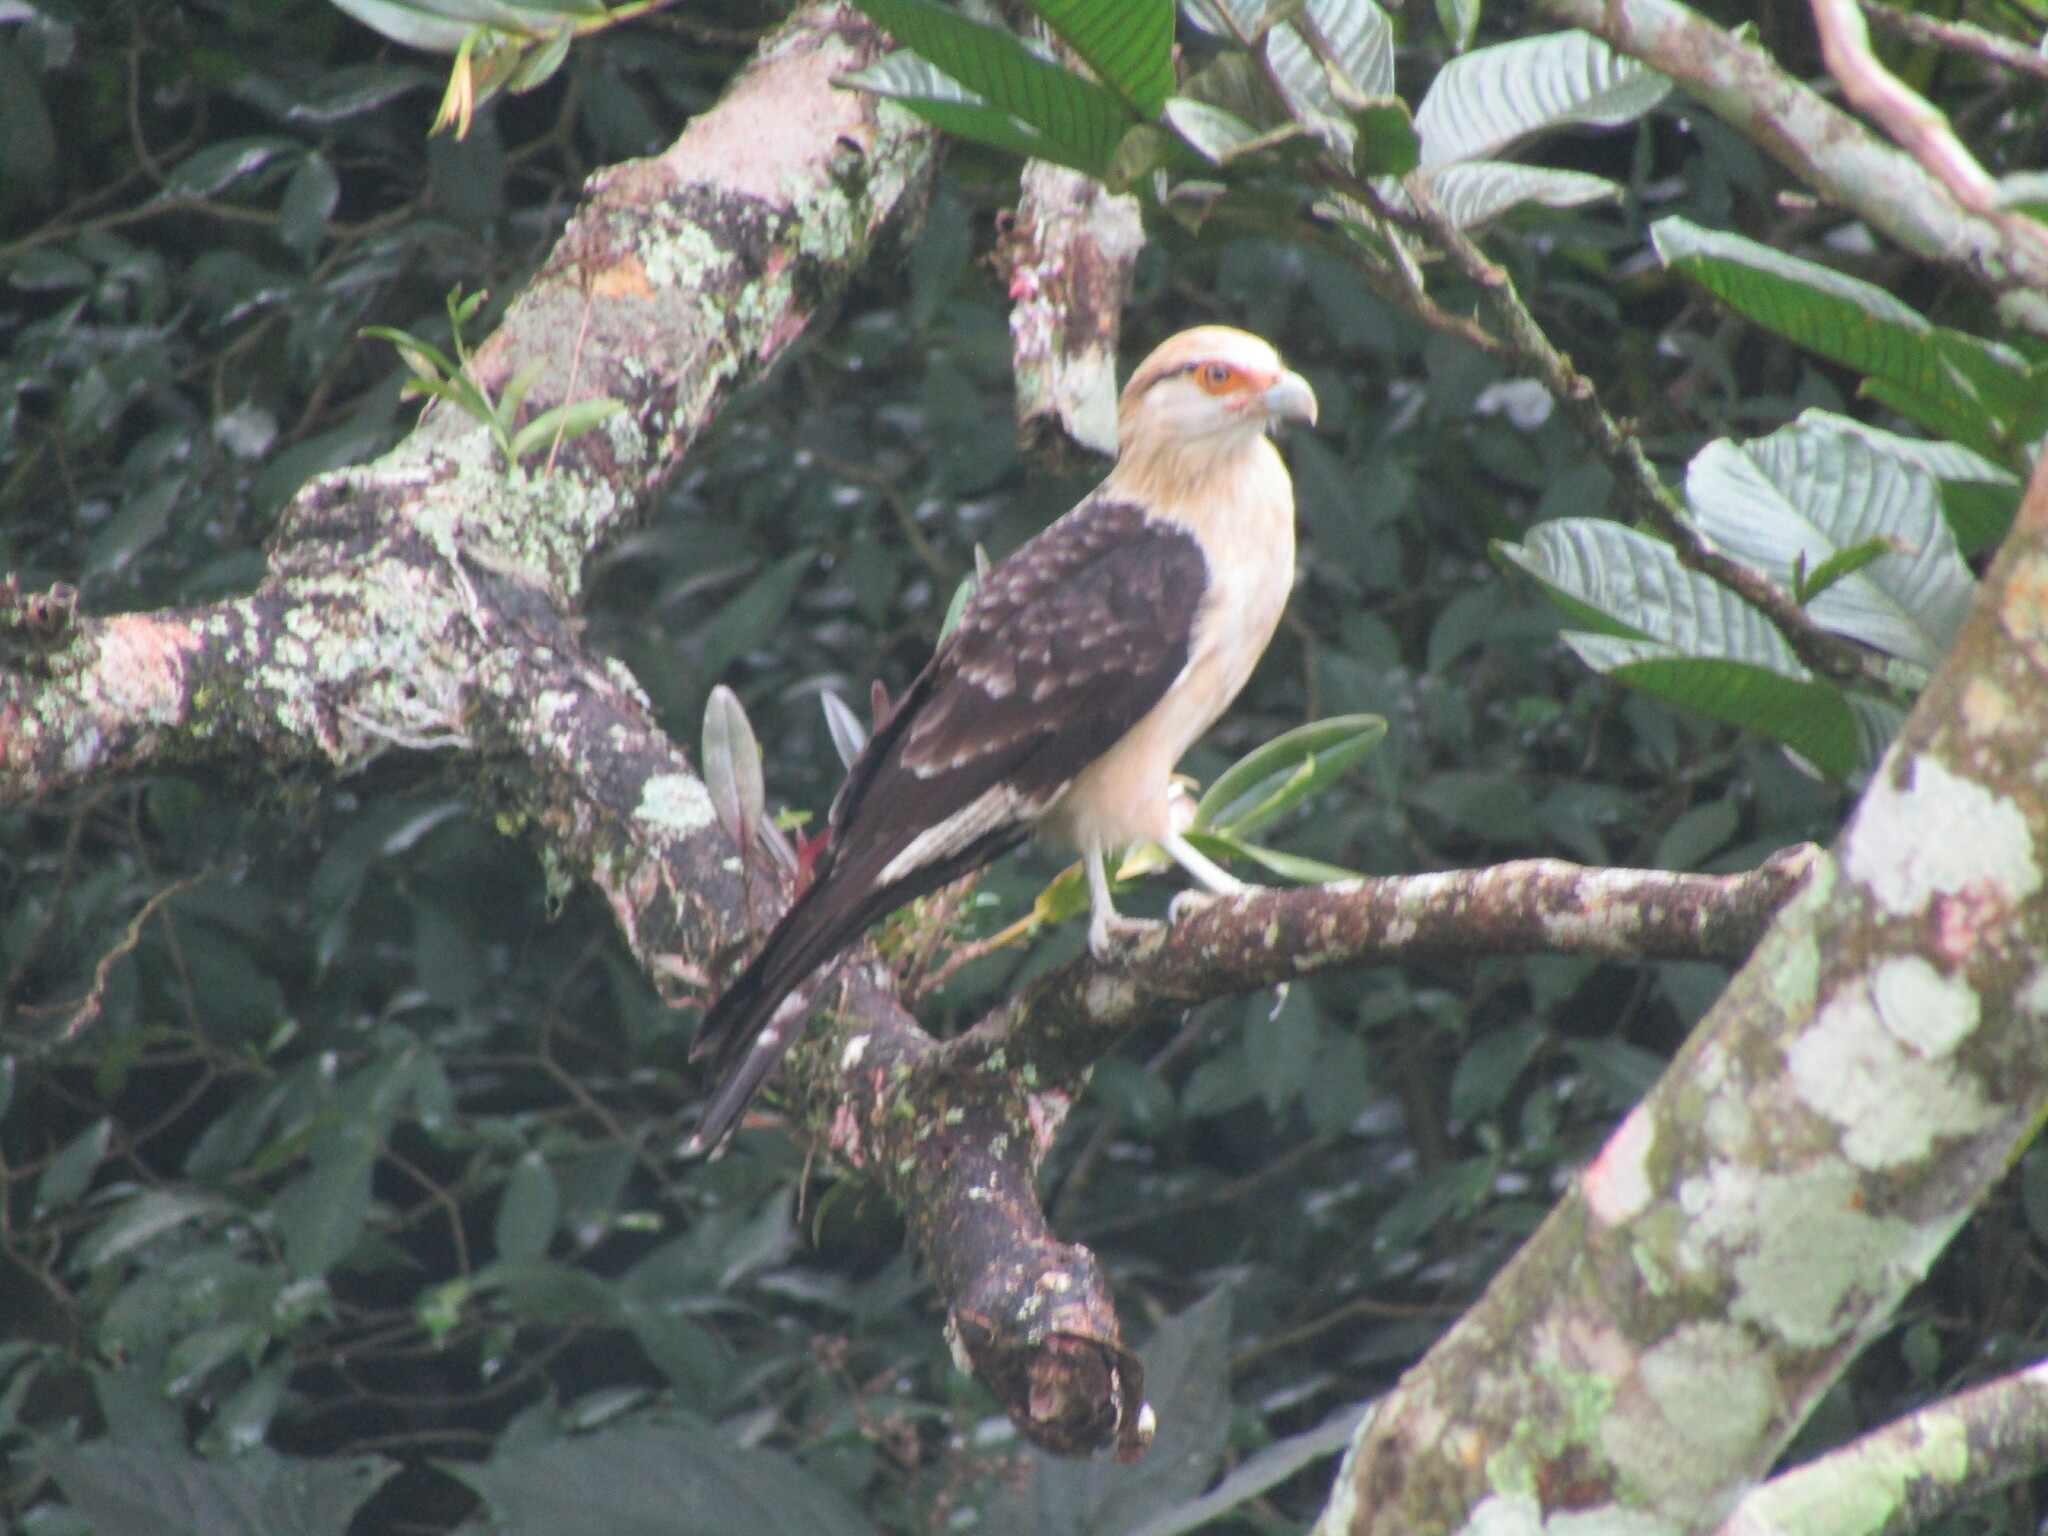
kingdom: Animalia
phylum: Chordata
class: Aves
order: Falconiformes
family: Falconidae
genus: Daptrius
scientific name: Daptrius
